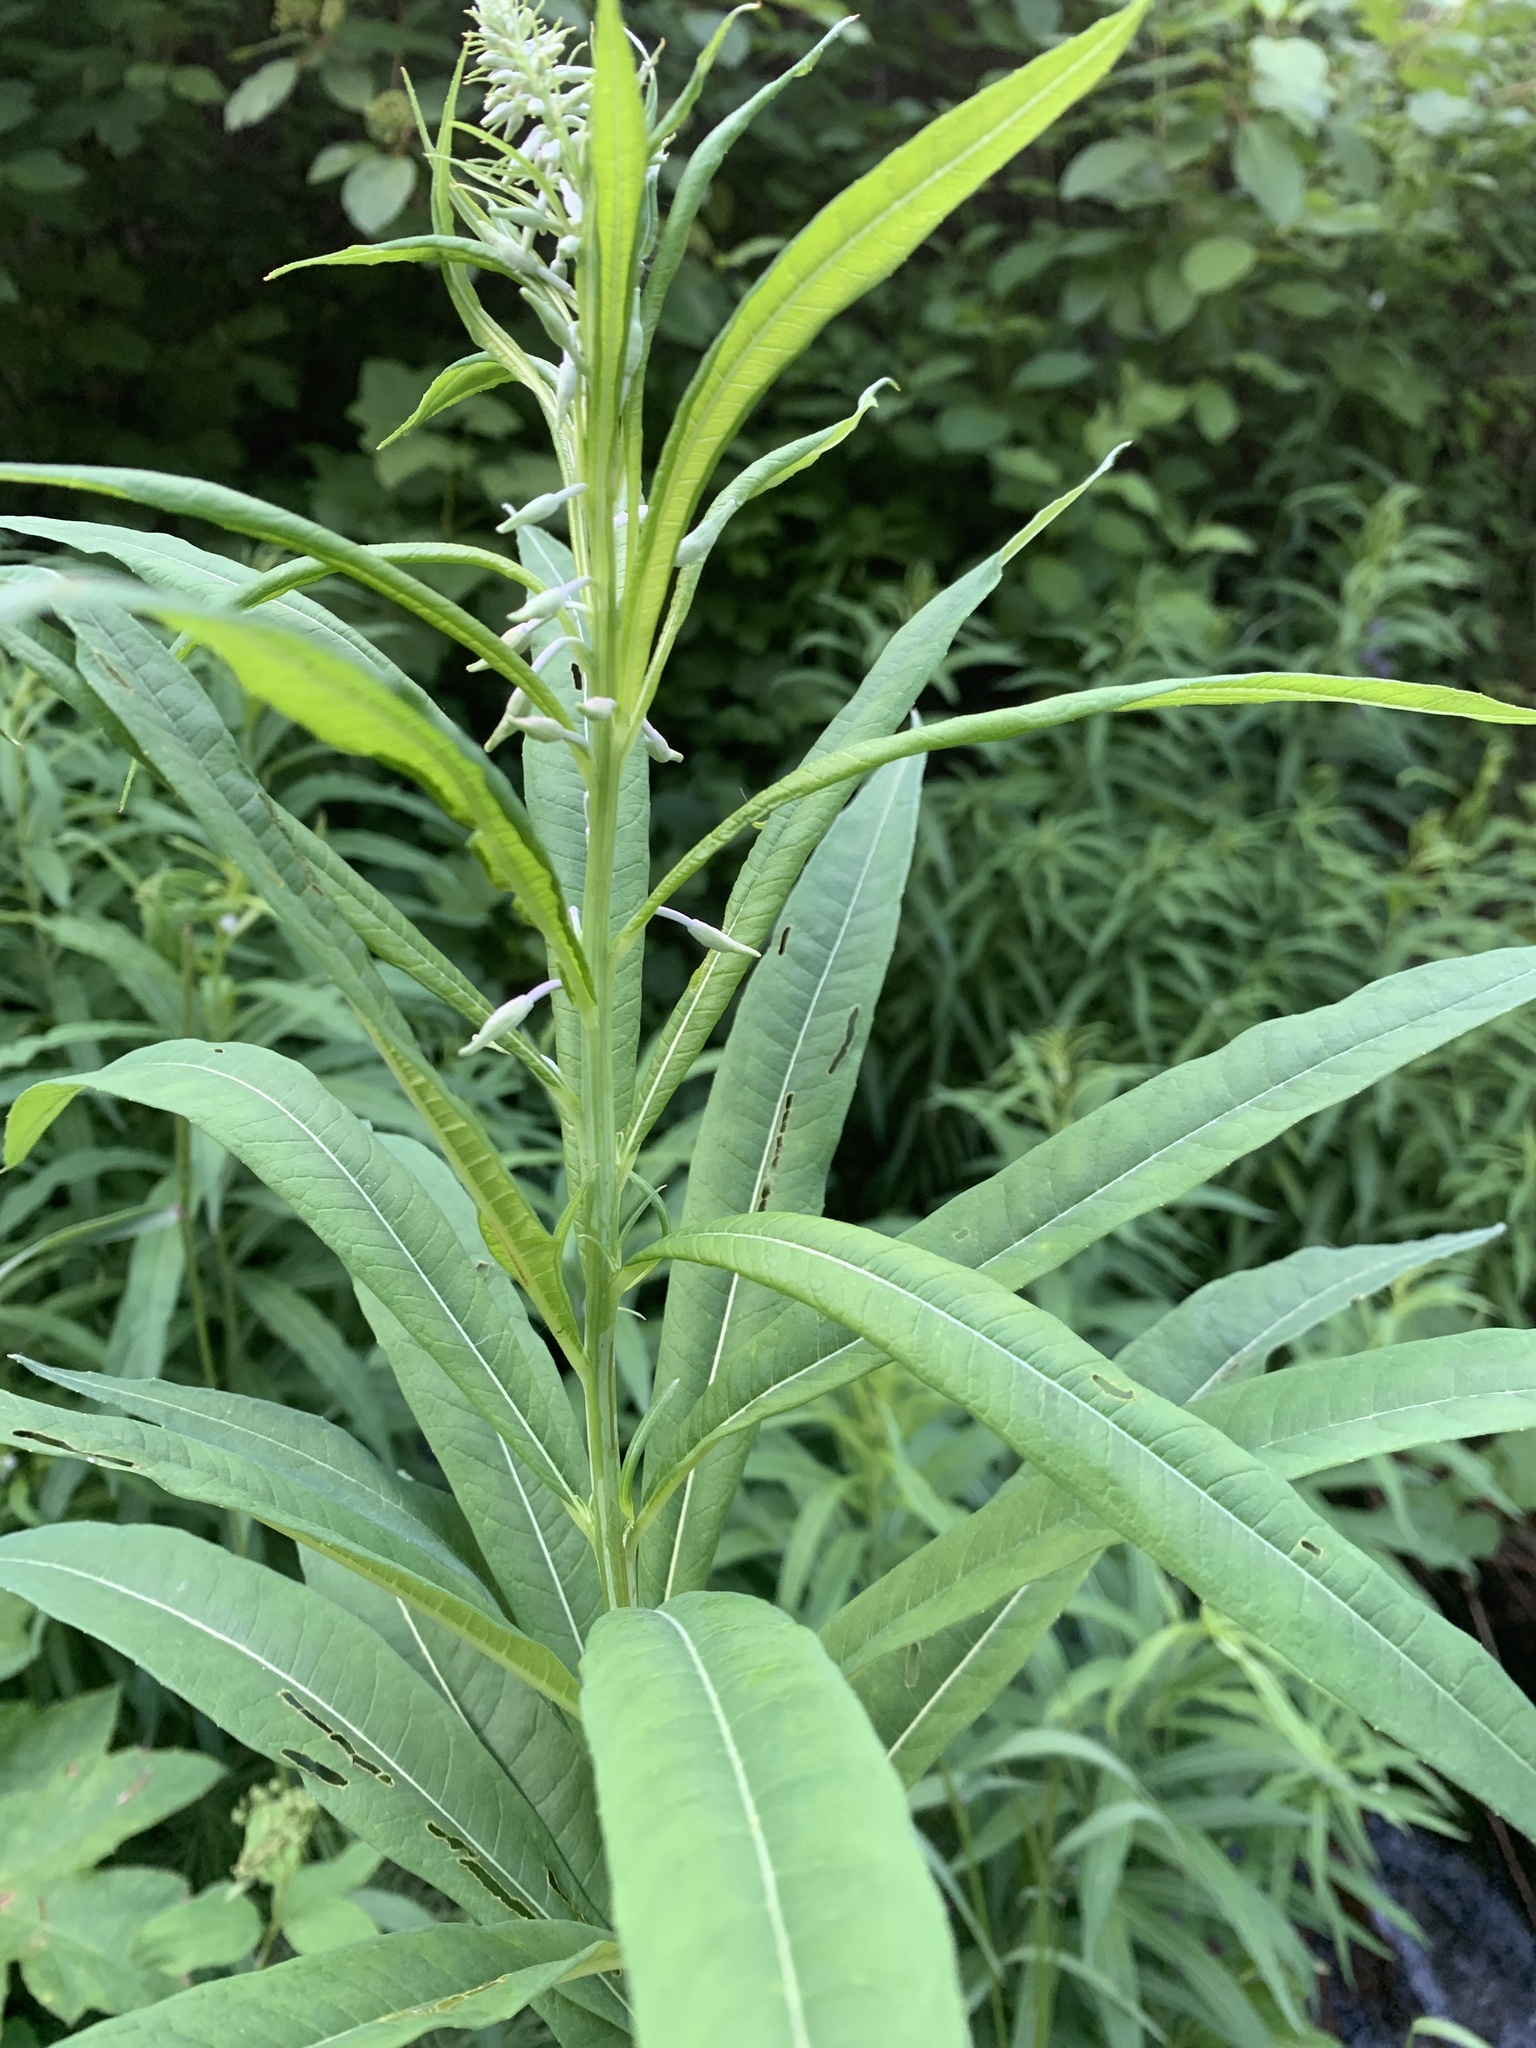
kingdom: Plantae
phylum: Tracheophyta
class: Magnoliopsida
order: Myrtales
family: Onagraceae
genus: Chamaenerion
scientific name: Chamaenerion angustifolium
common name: Fireweed
